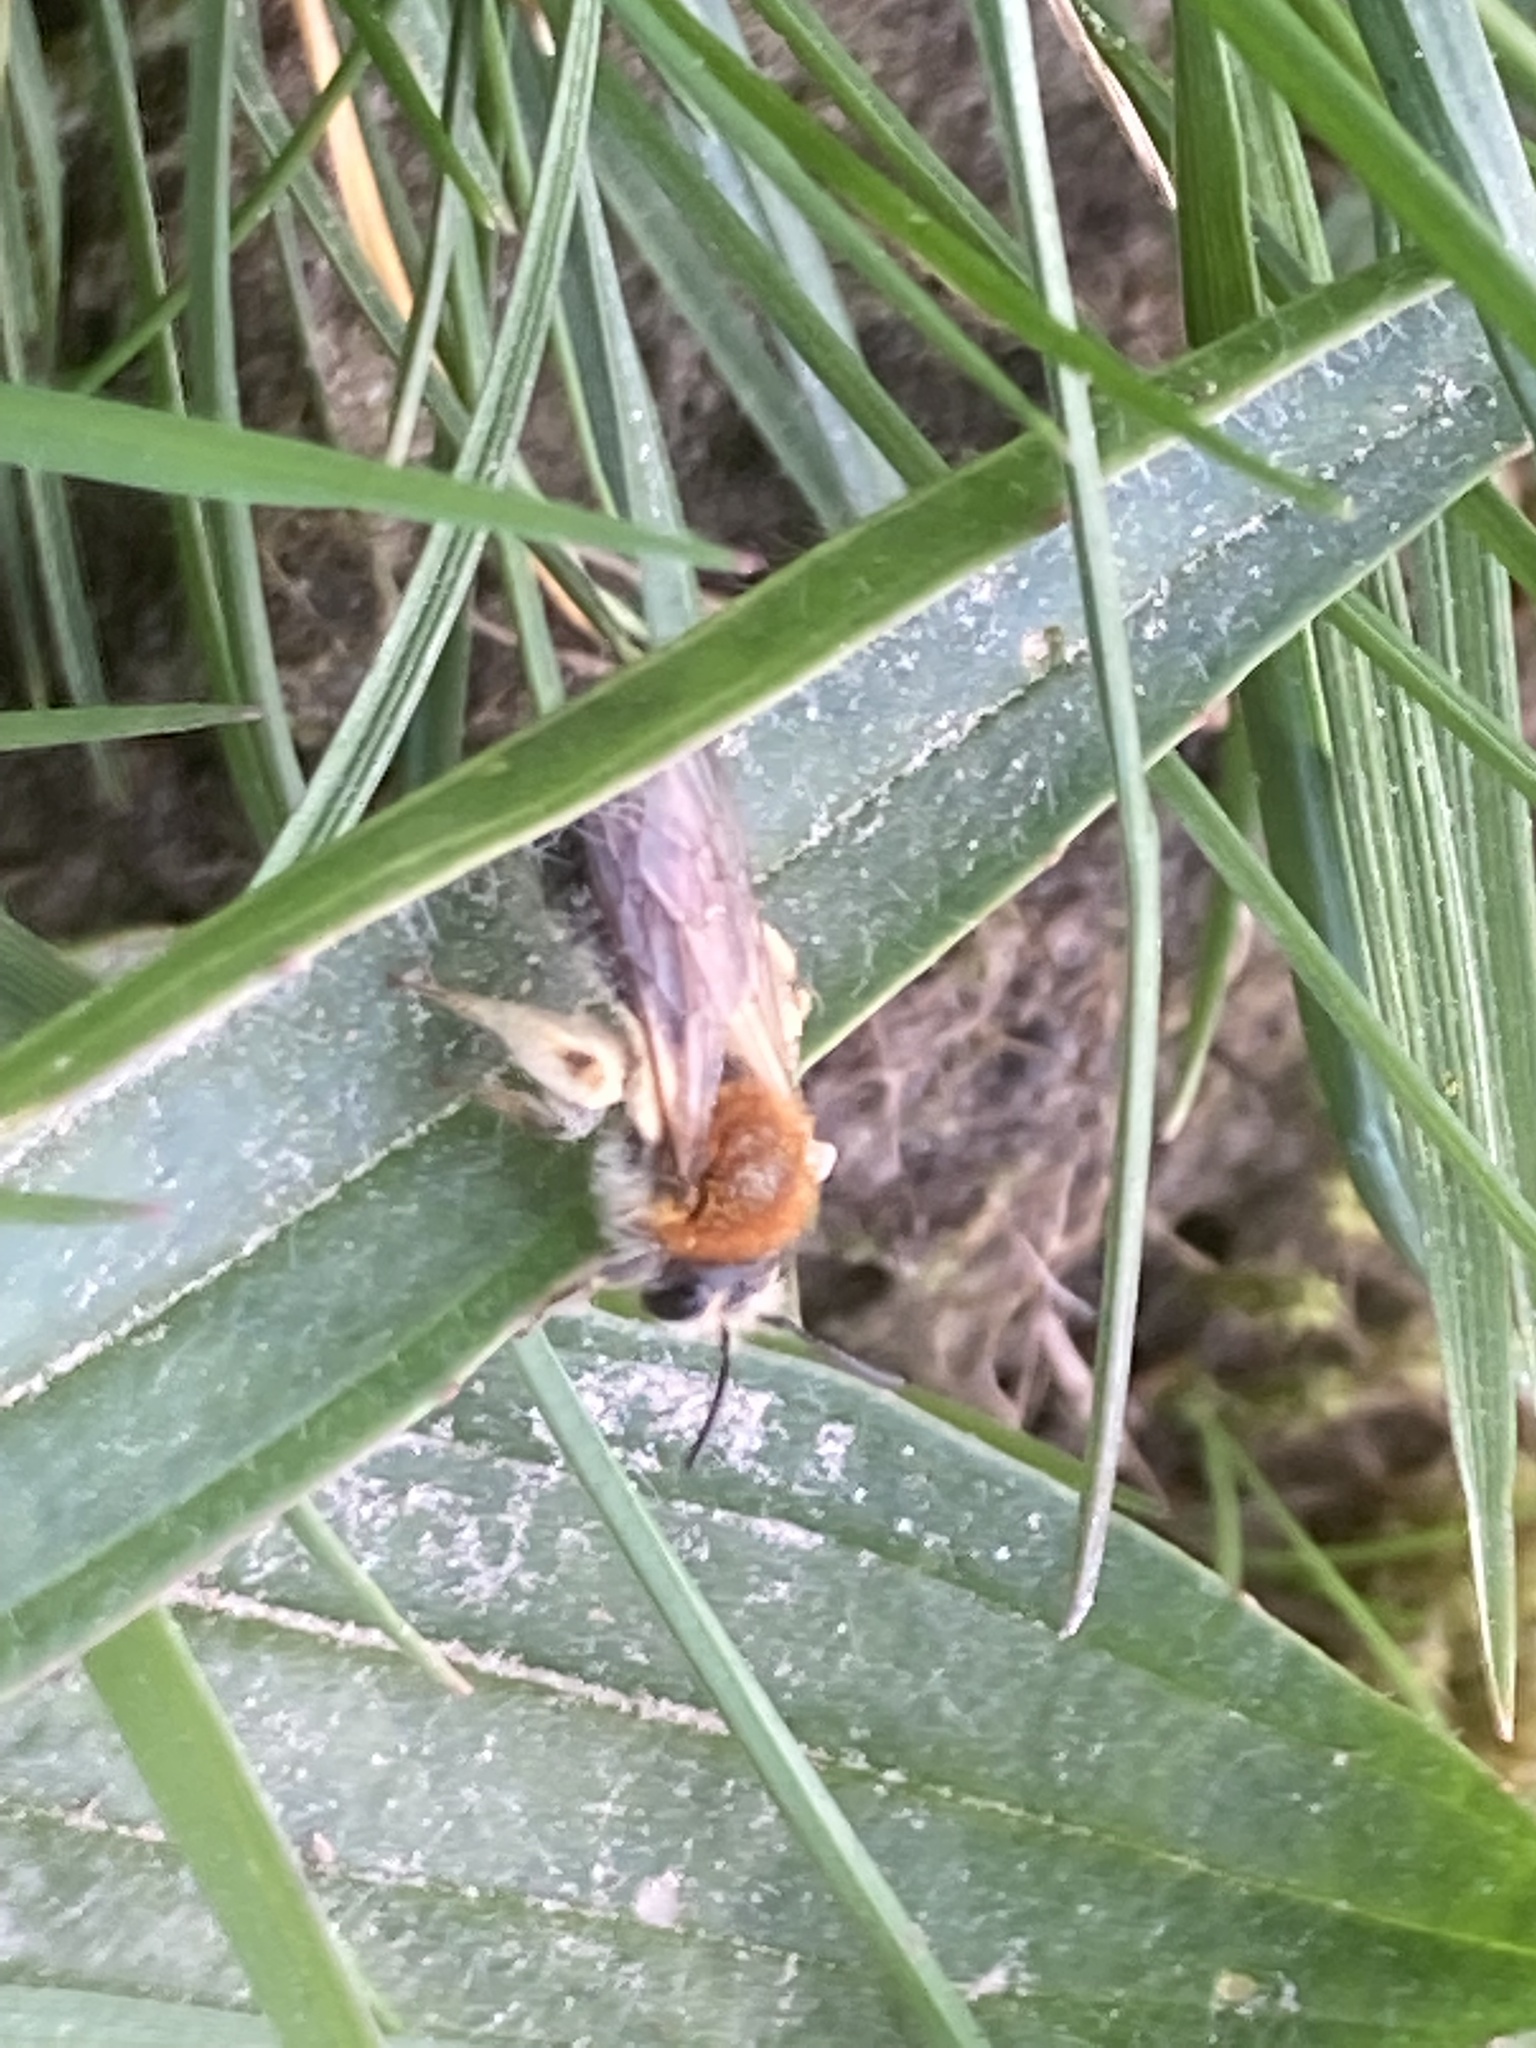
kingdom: Animalia
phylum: Arthropoda
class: Insecta
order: Hymenoptera
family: Andrenidae
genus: Andrena
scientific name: Andrena haemorrhoa
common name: Early mining bee
